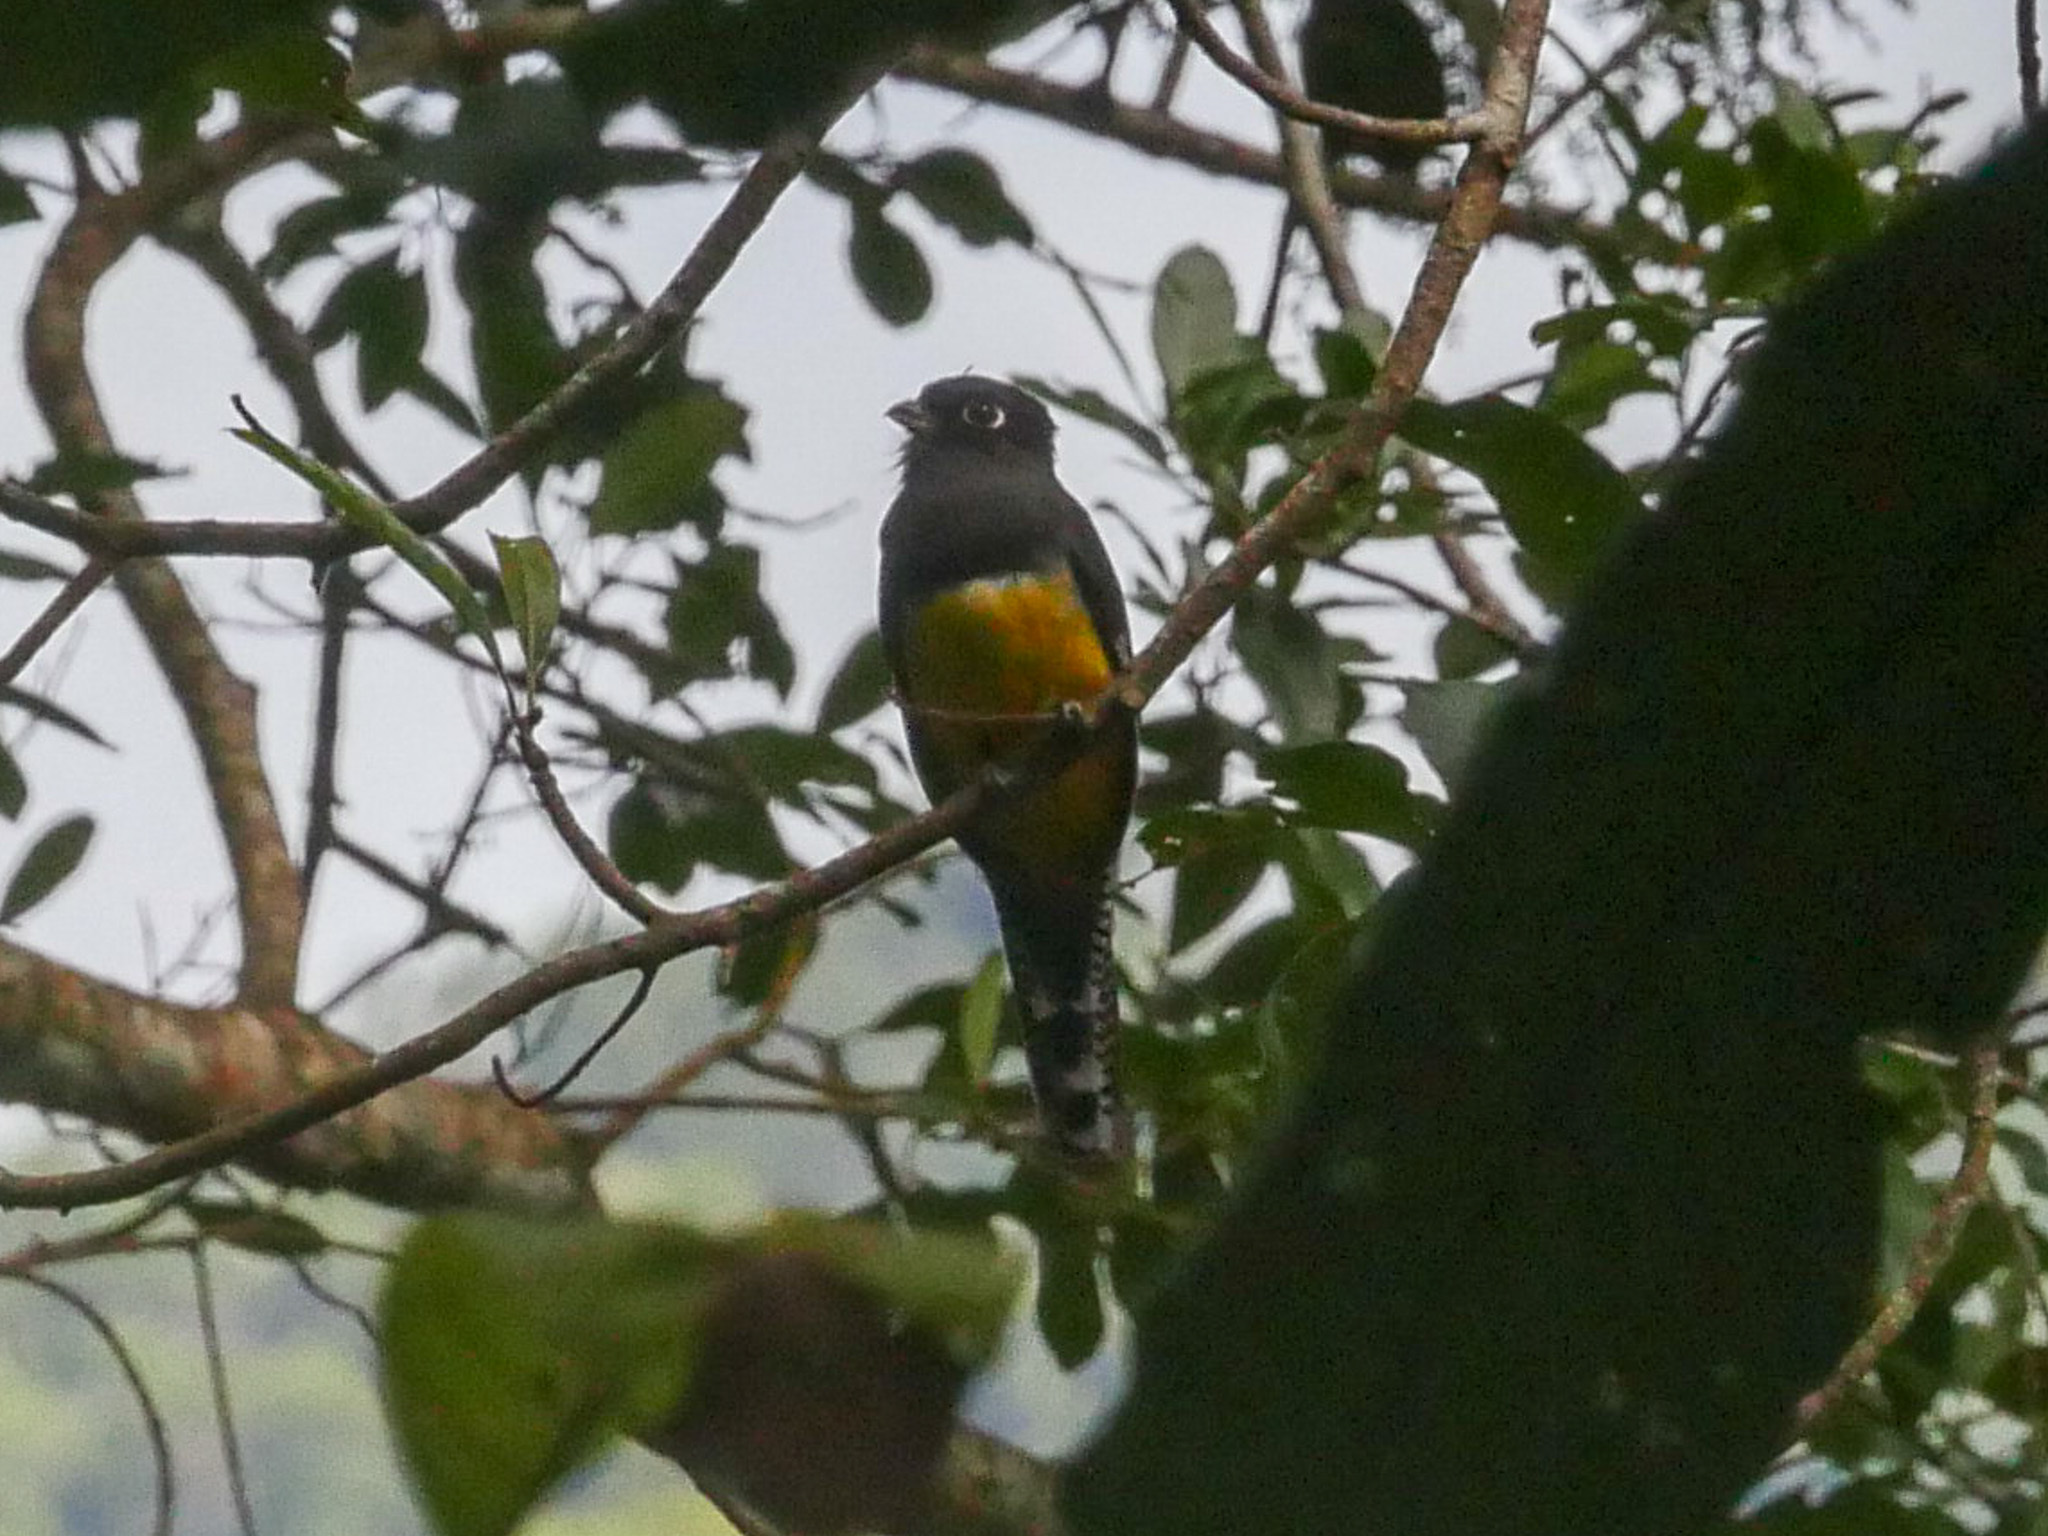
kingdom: Animalia
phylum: Chordata
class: Aves
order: Trogoniformes
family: Trogonidae
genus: Trogon
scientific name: Trogon caligatus
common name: Gartered trogon
